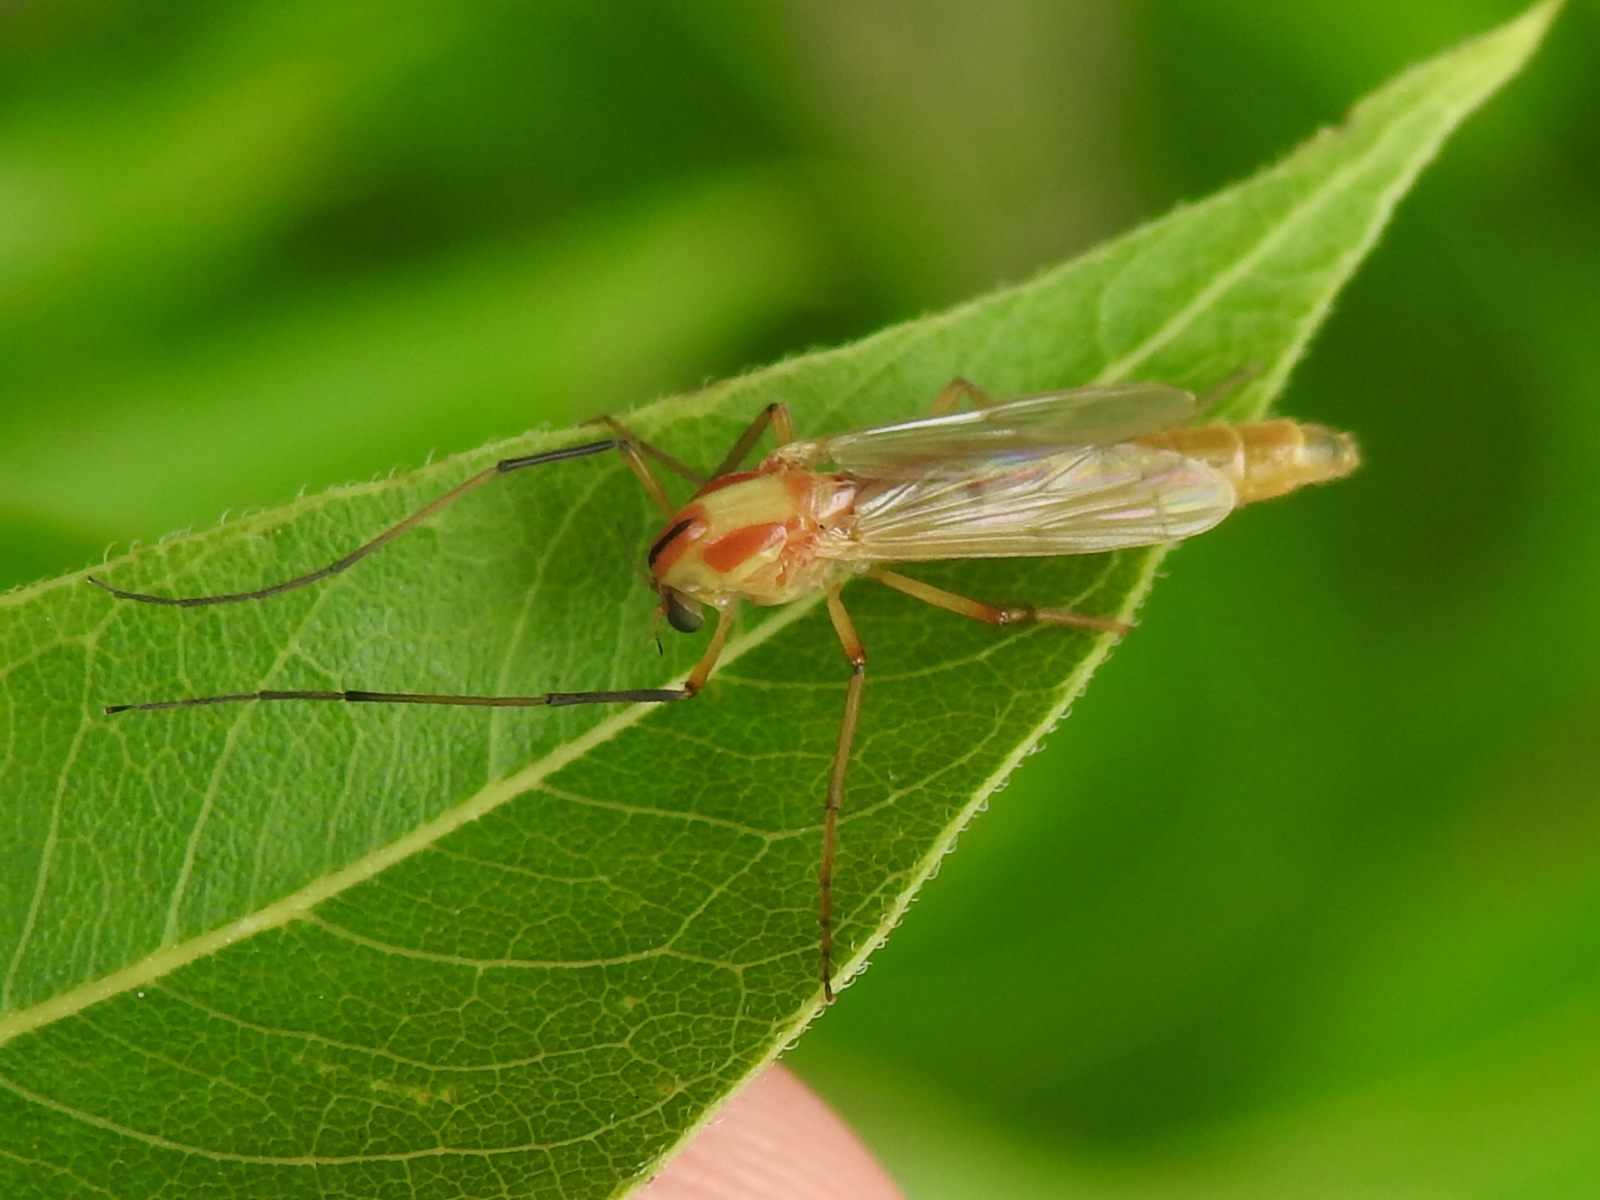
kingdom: Animalia
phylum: Arthropoda
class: Insecta
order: Diptera
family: Chironomidae
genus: Axarus
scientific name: Axarus
